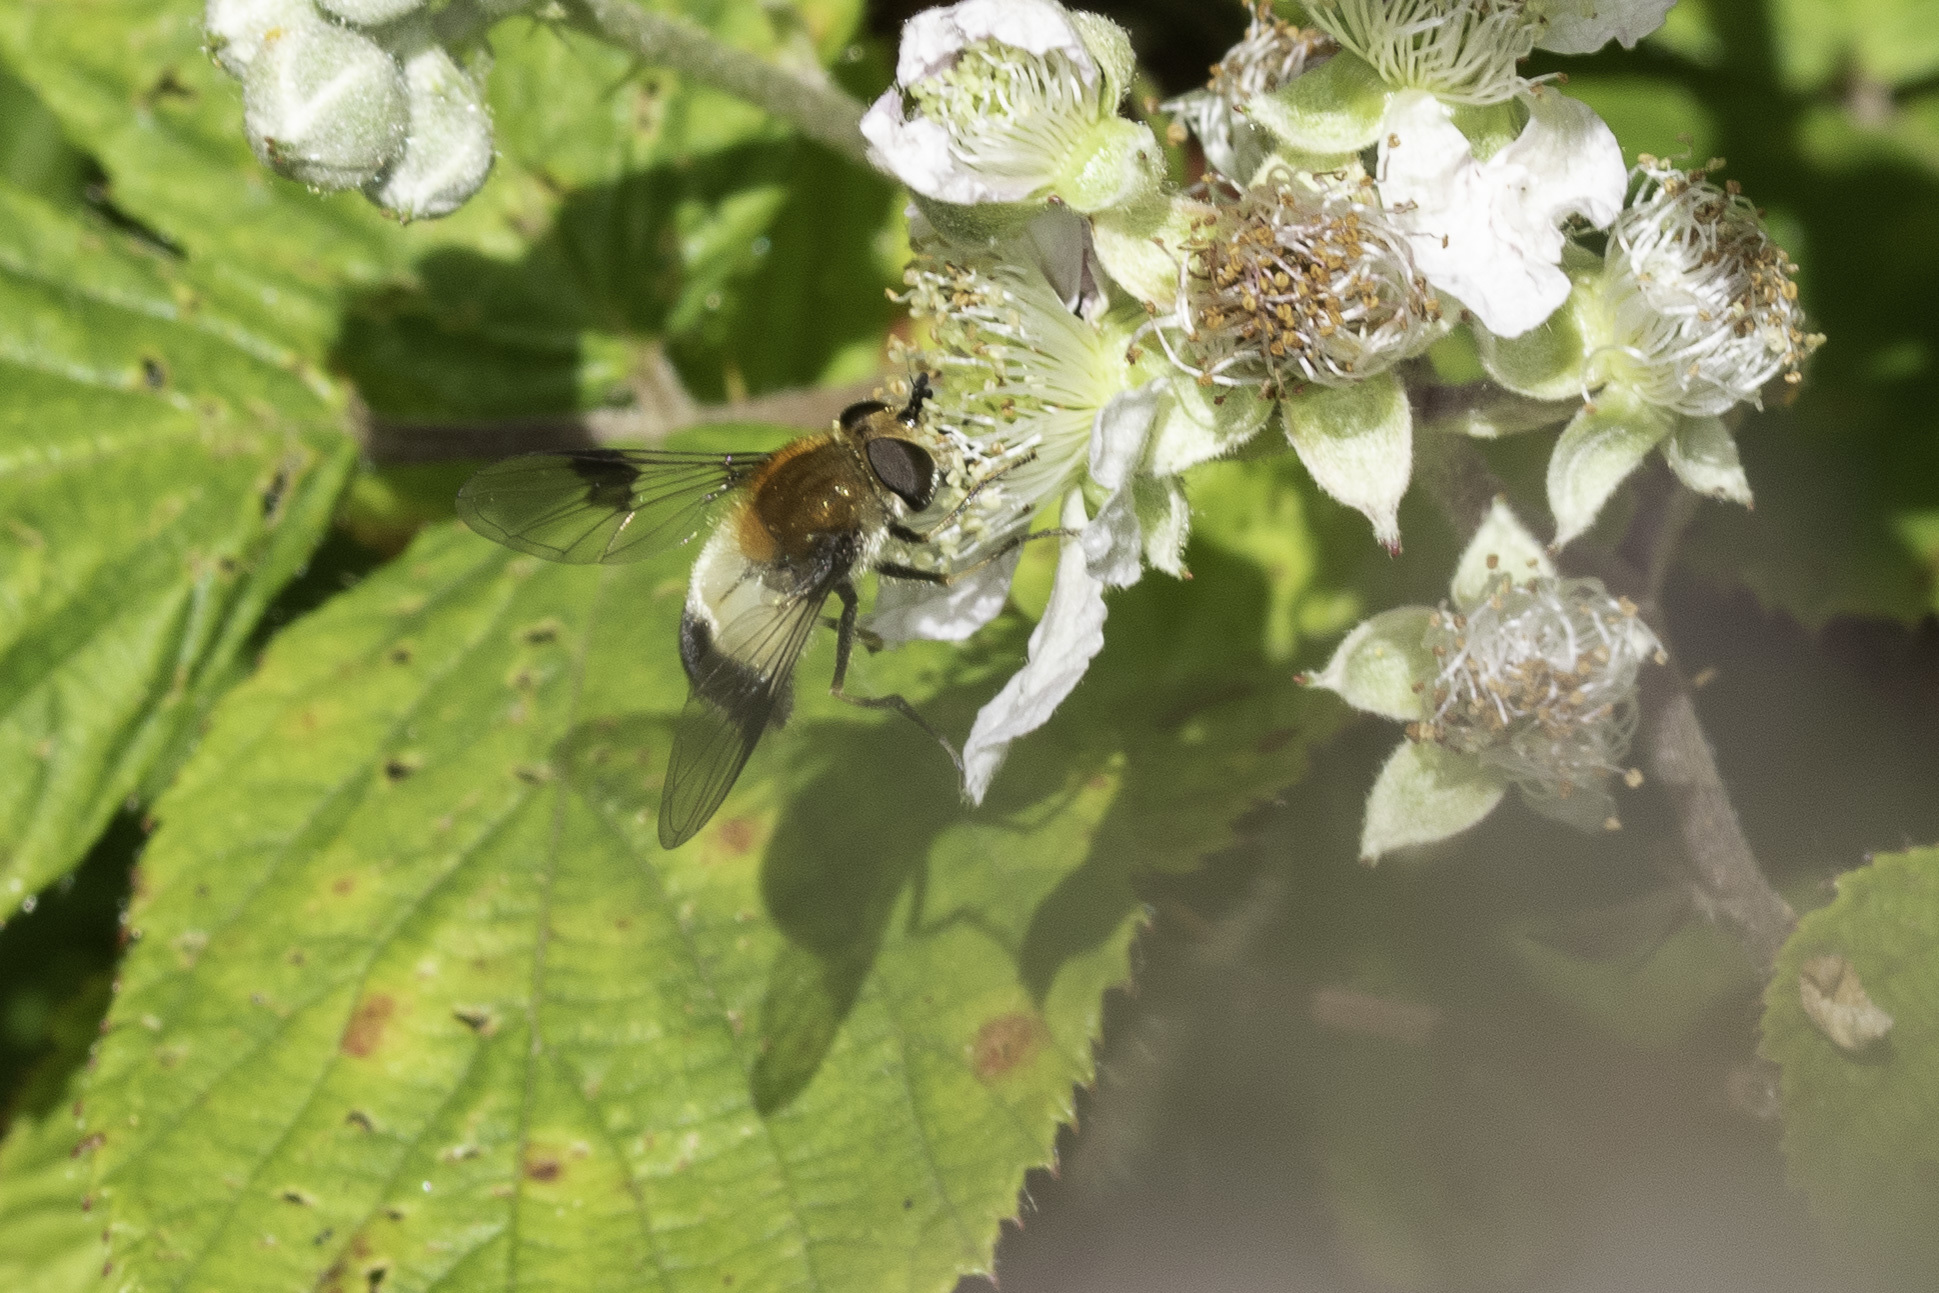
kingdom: Animalia
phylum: Arthropoda
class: Insecta
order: Diptera
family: Syrphidae
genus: Leucozona
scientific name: Leucozona lucorum
